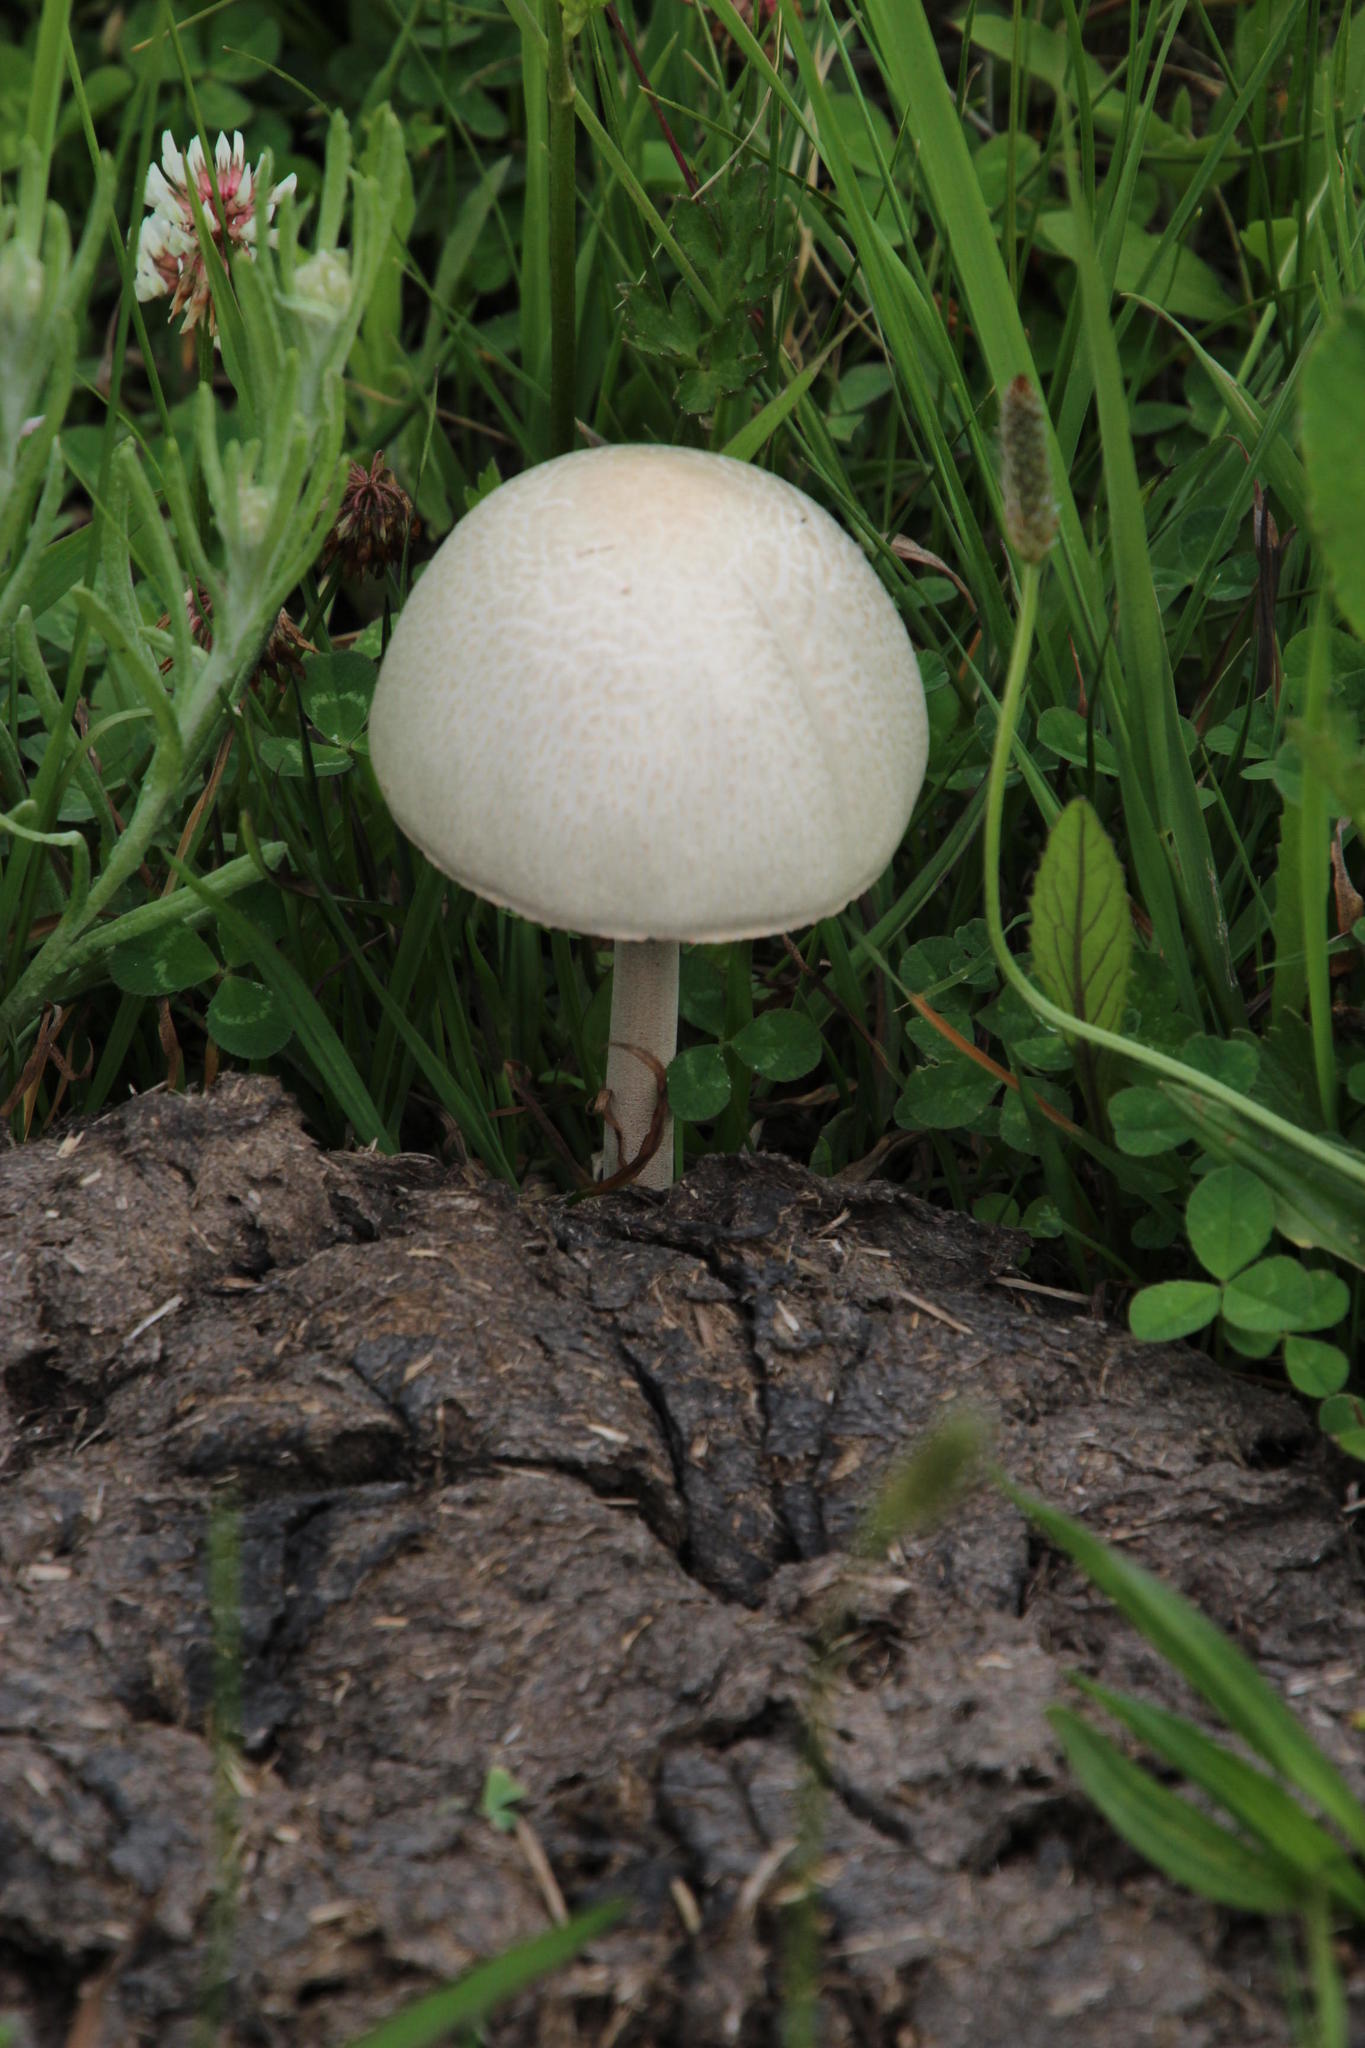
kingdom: Fungi
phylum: Basidiomycota
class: Agaricomycetes
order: Agaricales
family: Bolbitiaceae
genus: Panaeolus
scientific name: Panaeolus antillarum
